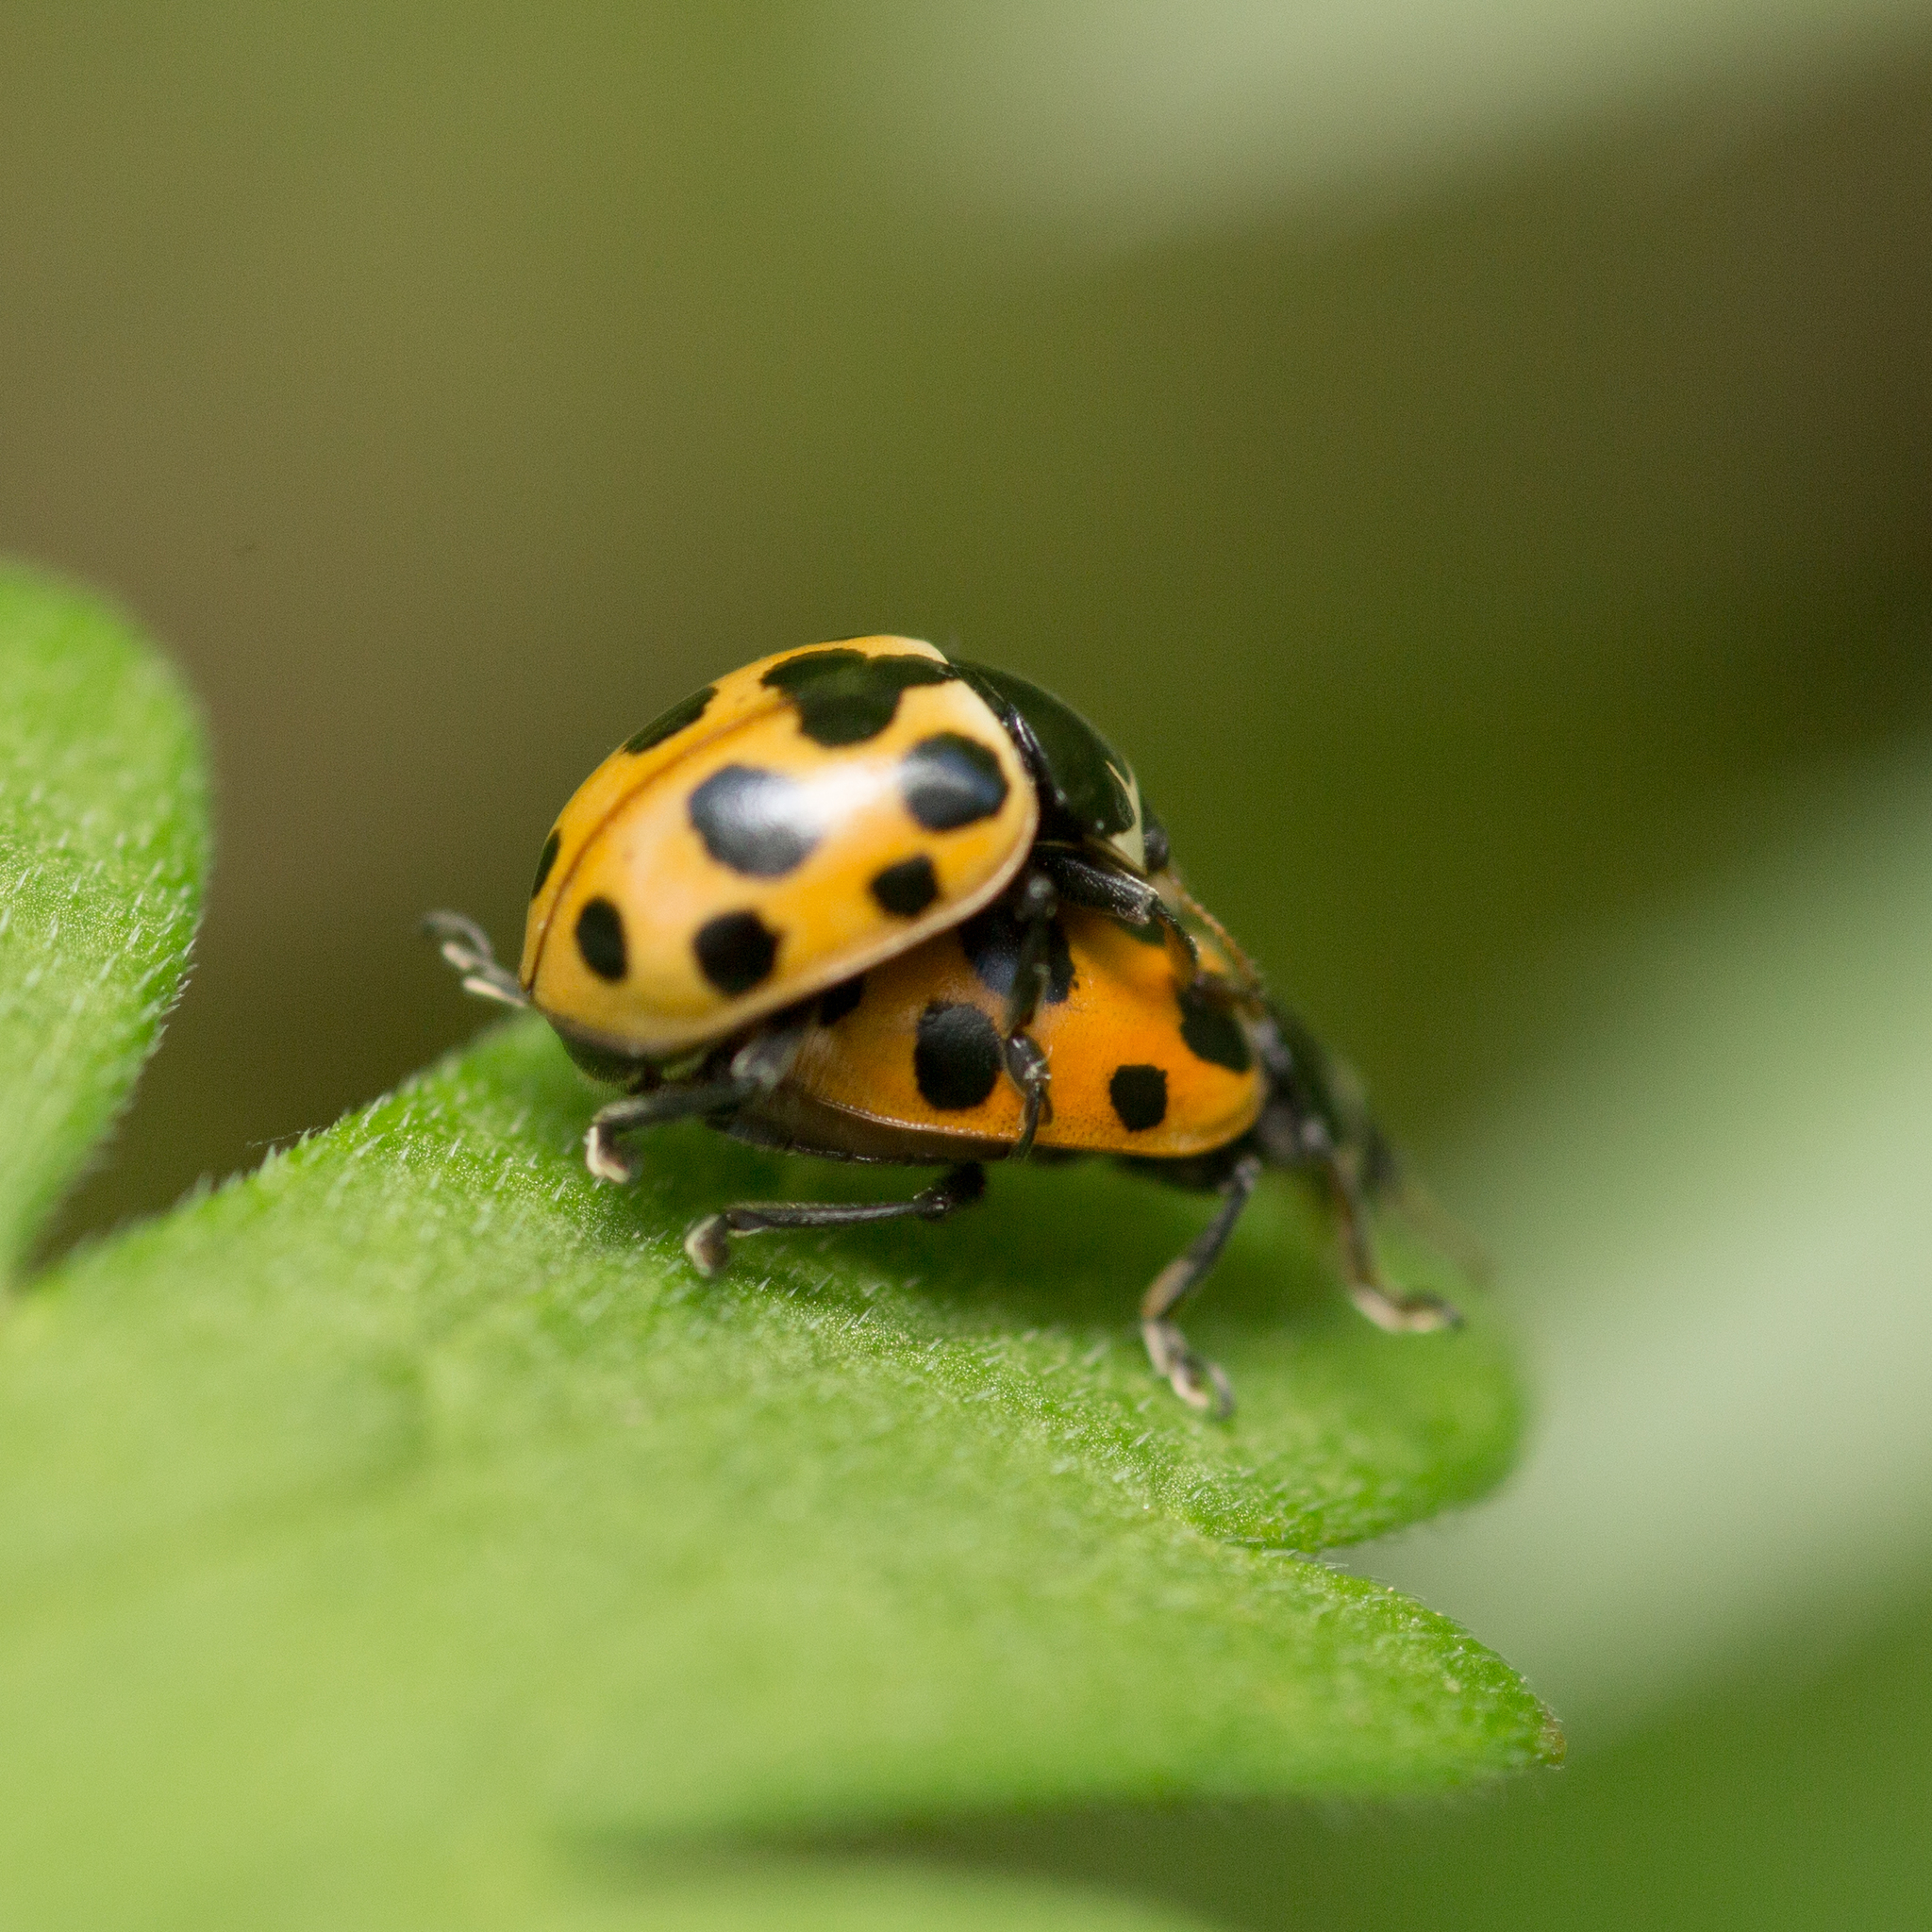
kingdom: Animalia
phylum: Arthropoda
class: Insecta
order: Coleoptera
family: Coccinellidae
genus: Ceratomegilla
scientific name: Ceratomegilla notata
